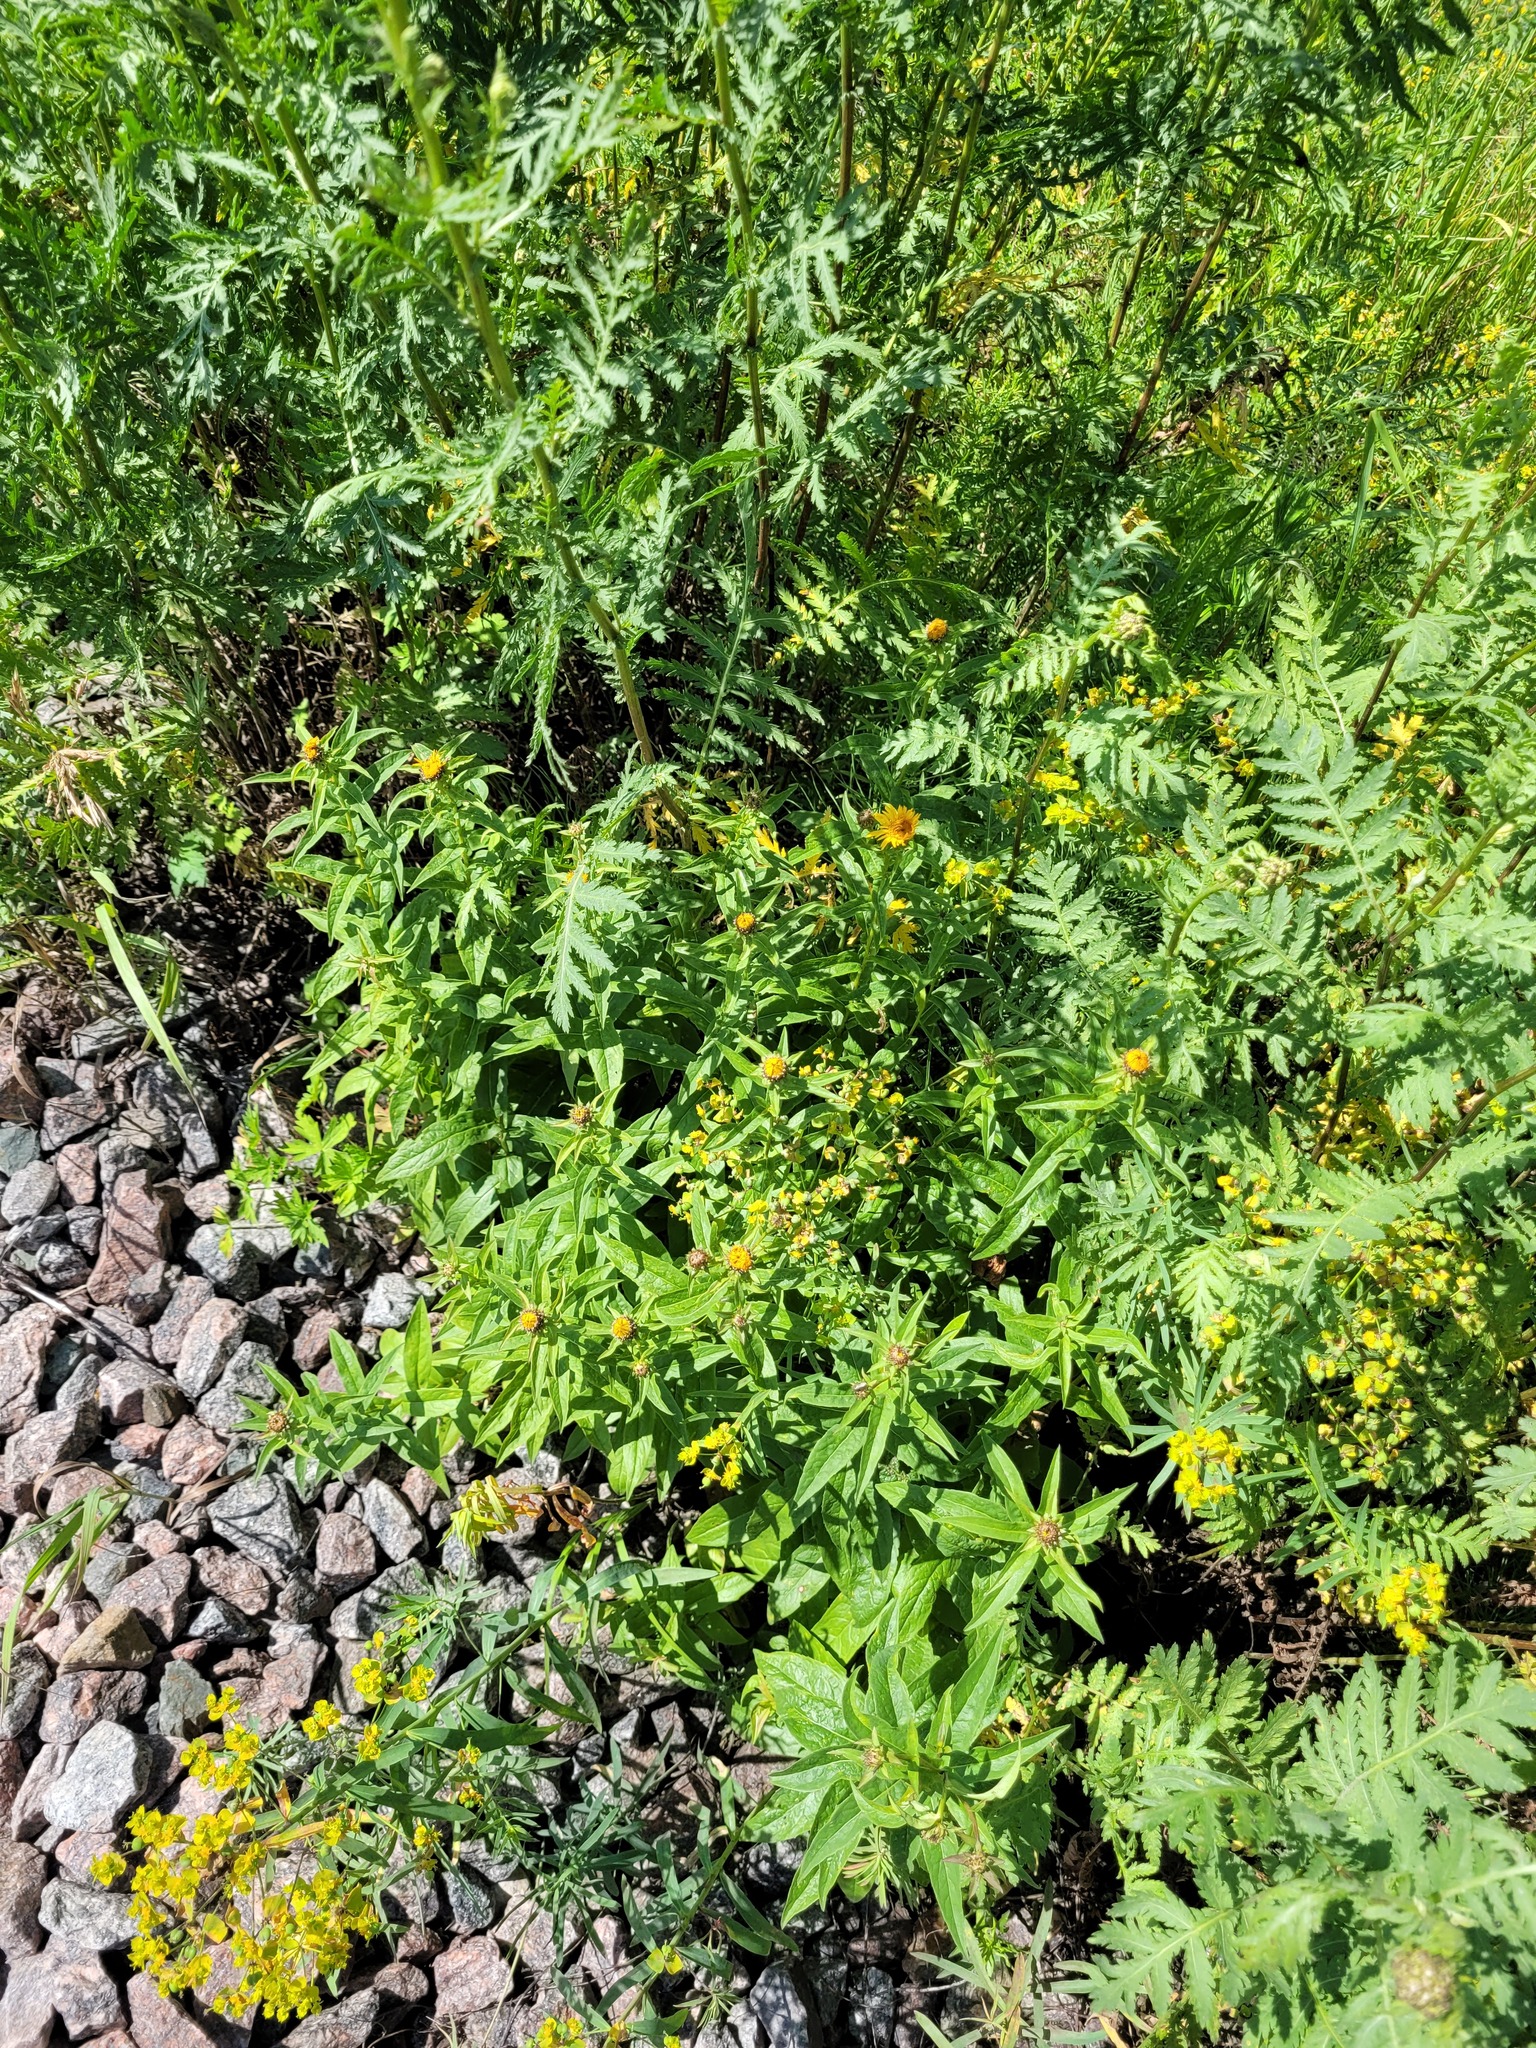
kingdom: Plantae
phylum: Tracheophyta
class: Magnoliopsida
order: Asterales
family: Asteraceae
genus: Pentanema
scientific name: Pentanema salicinum
